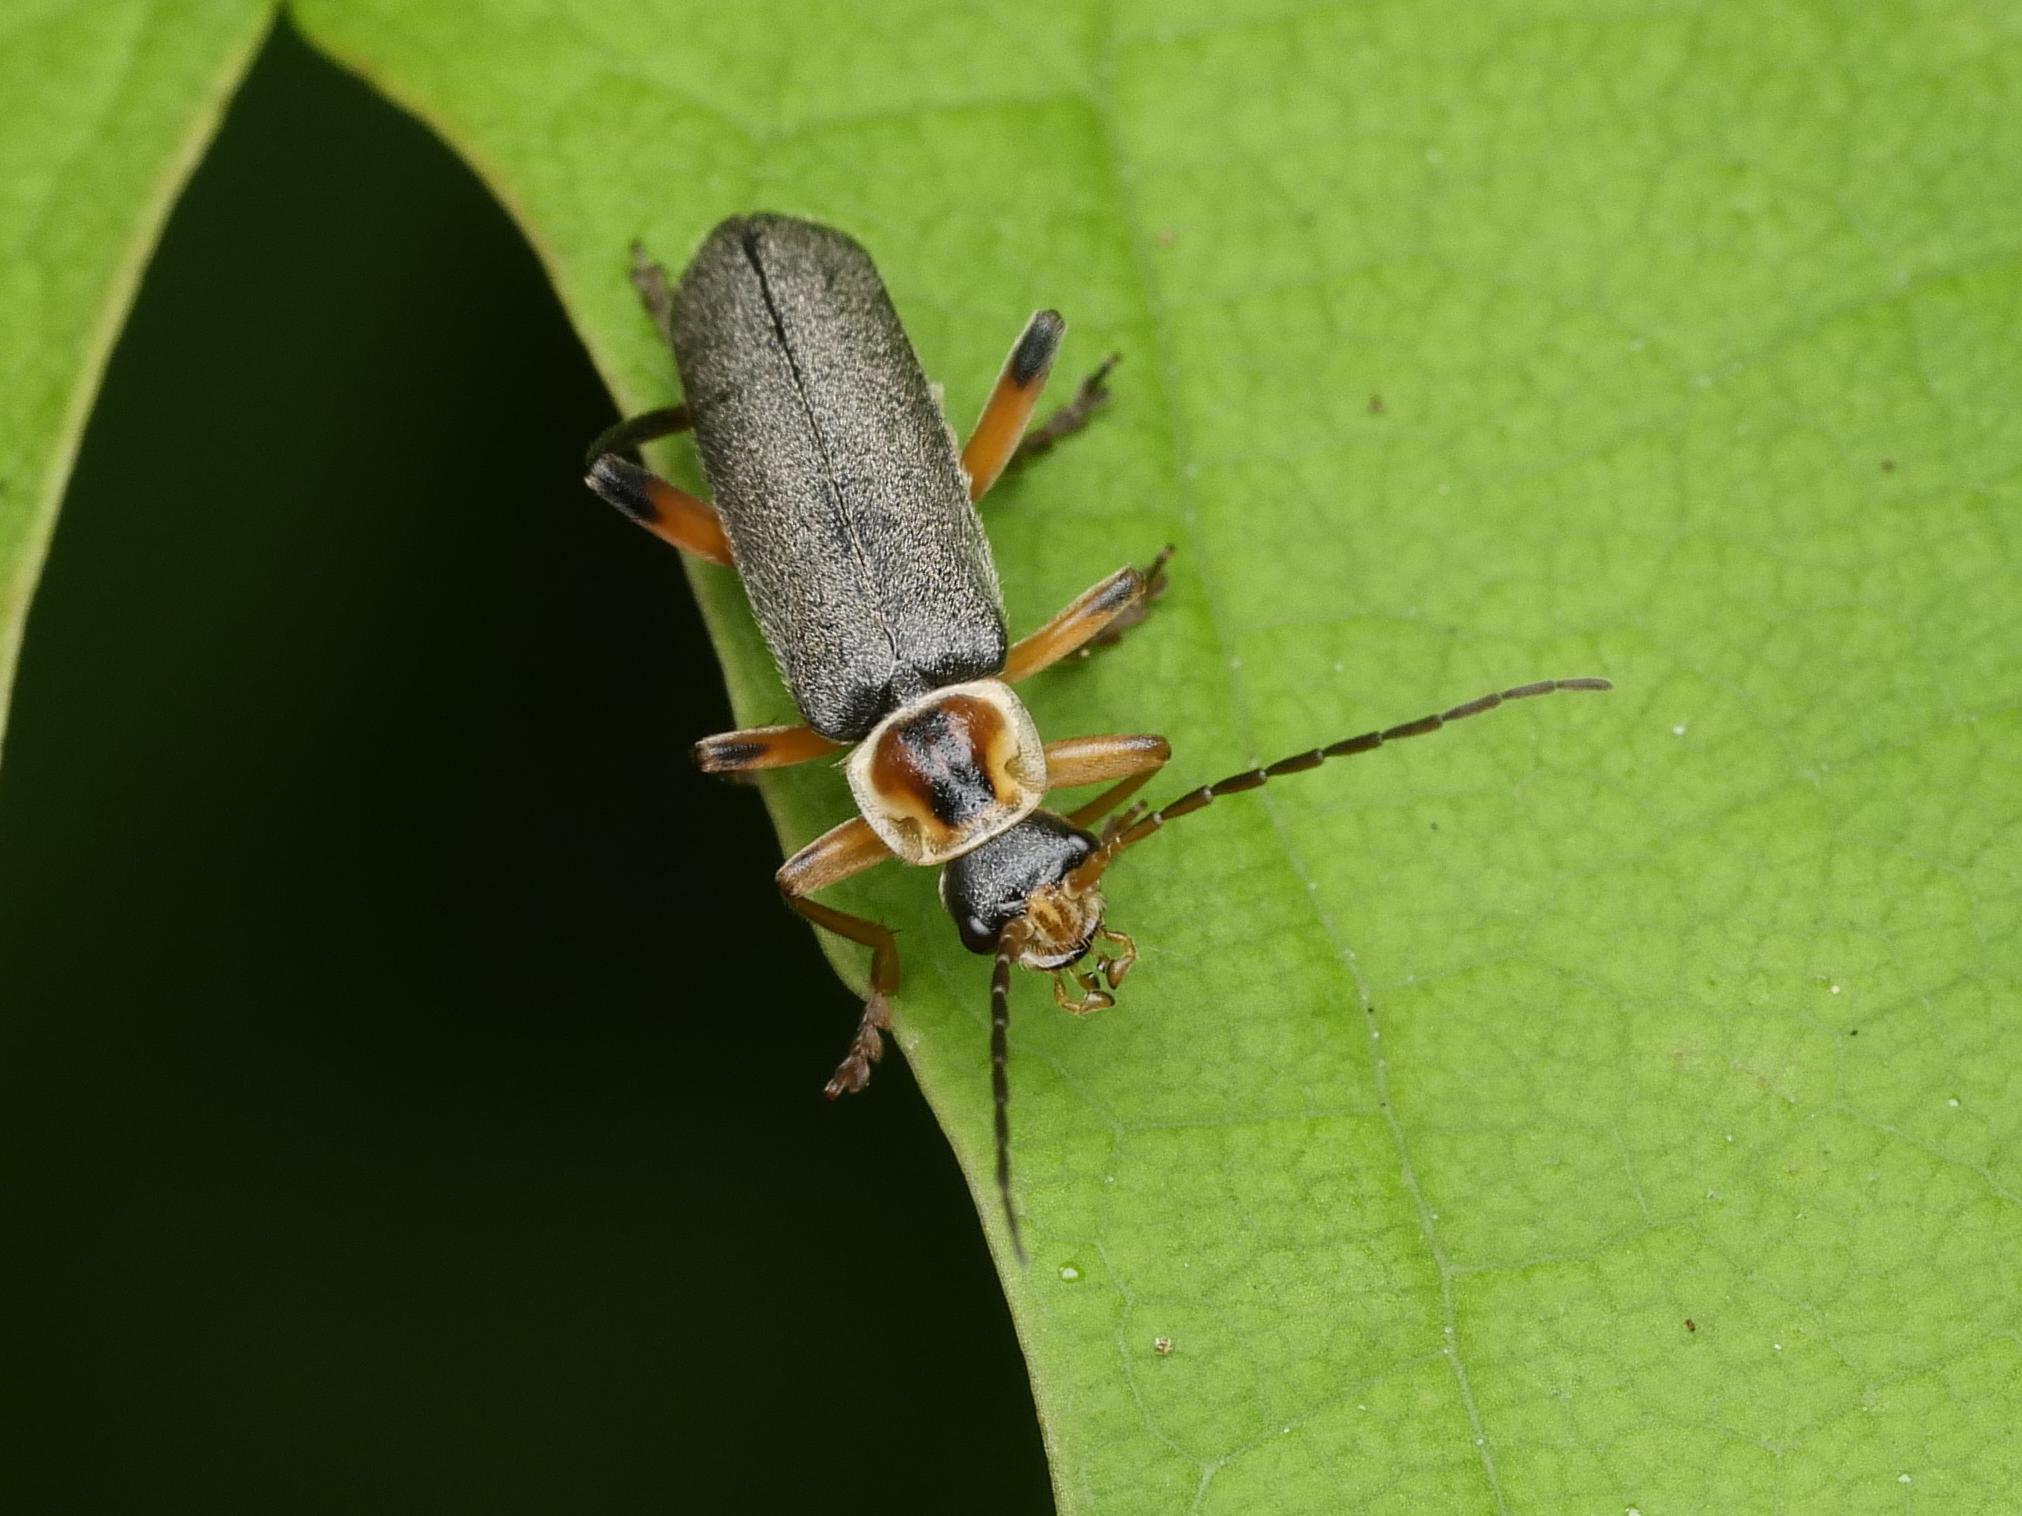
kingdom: Animalia
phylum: Arthropoda
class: Insecta
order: Coleoptera
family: Cantharidae
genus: Cantharis
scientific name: Cantharis nigricans
